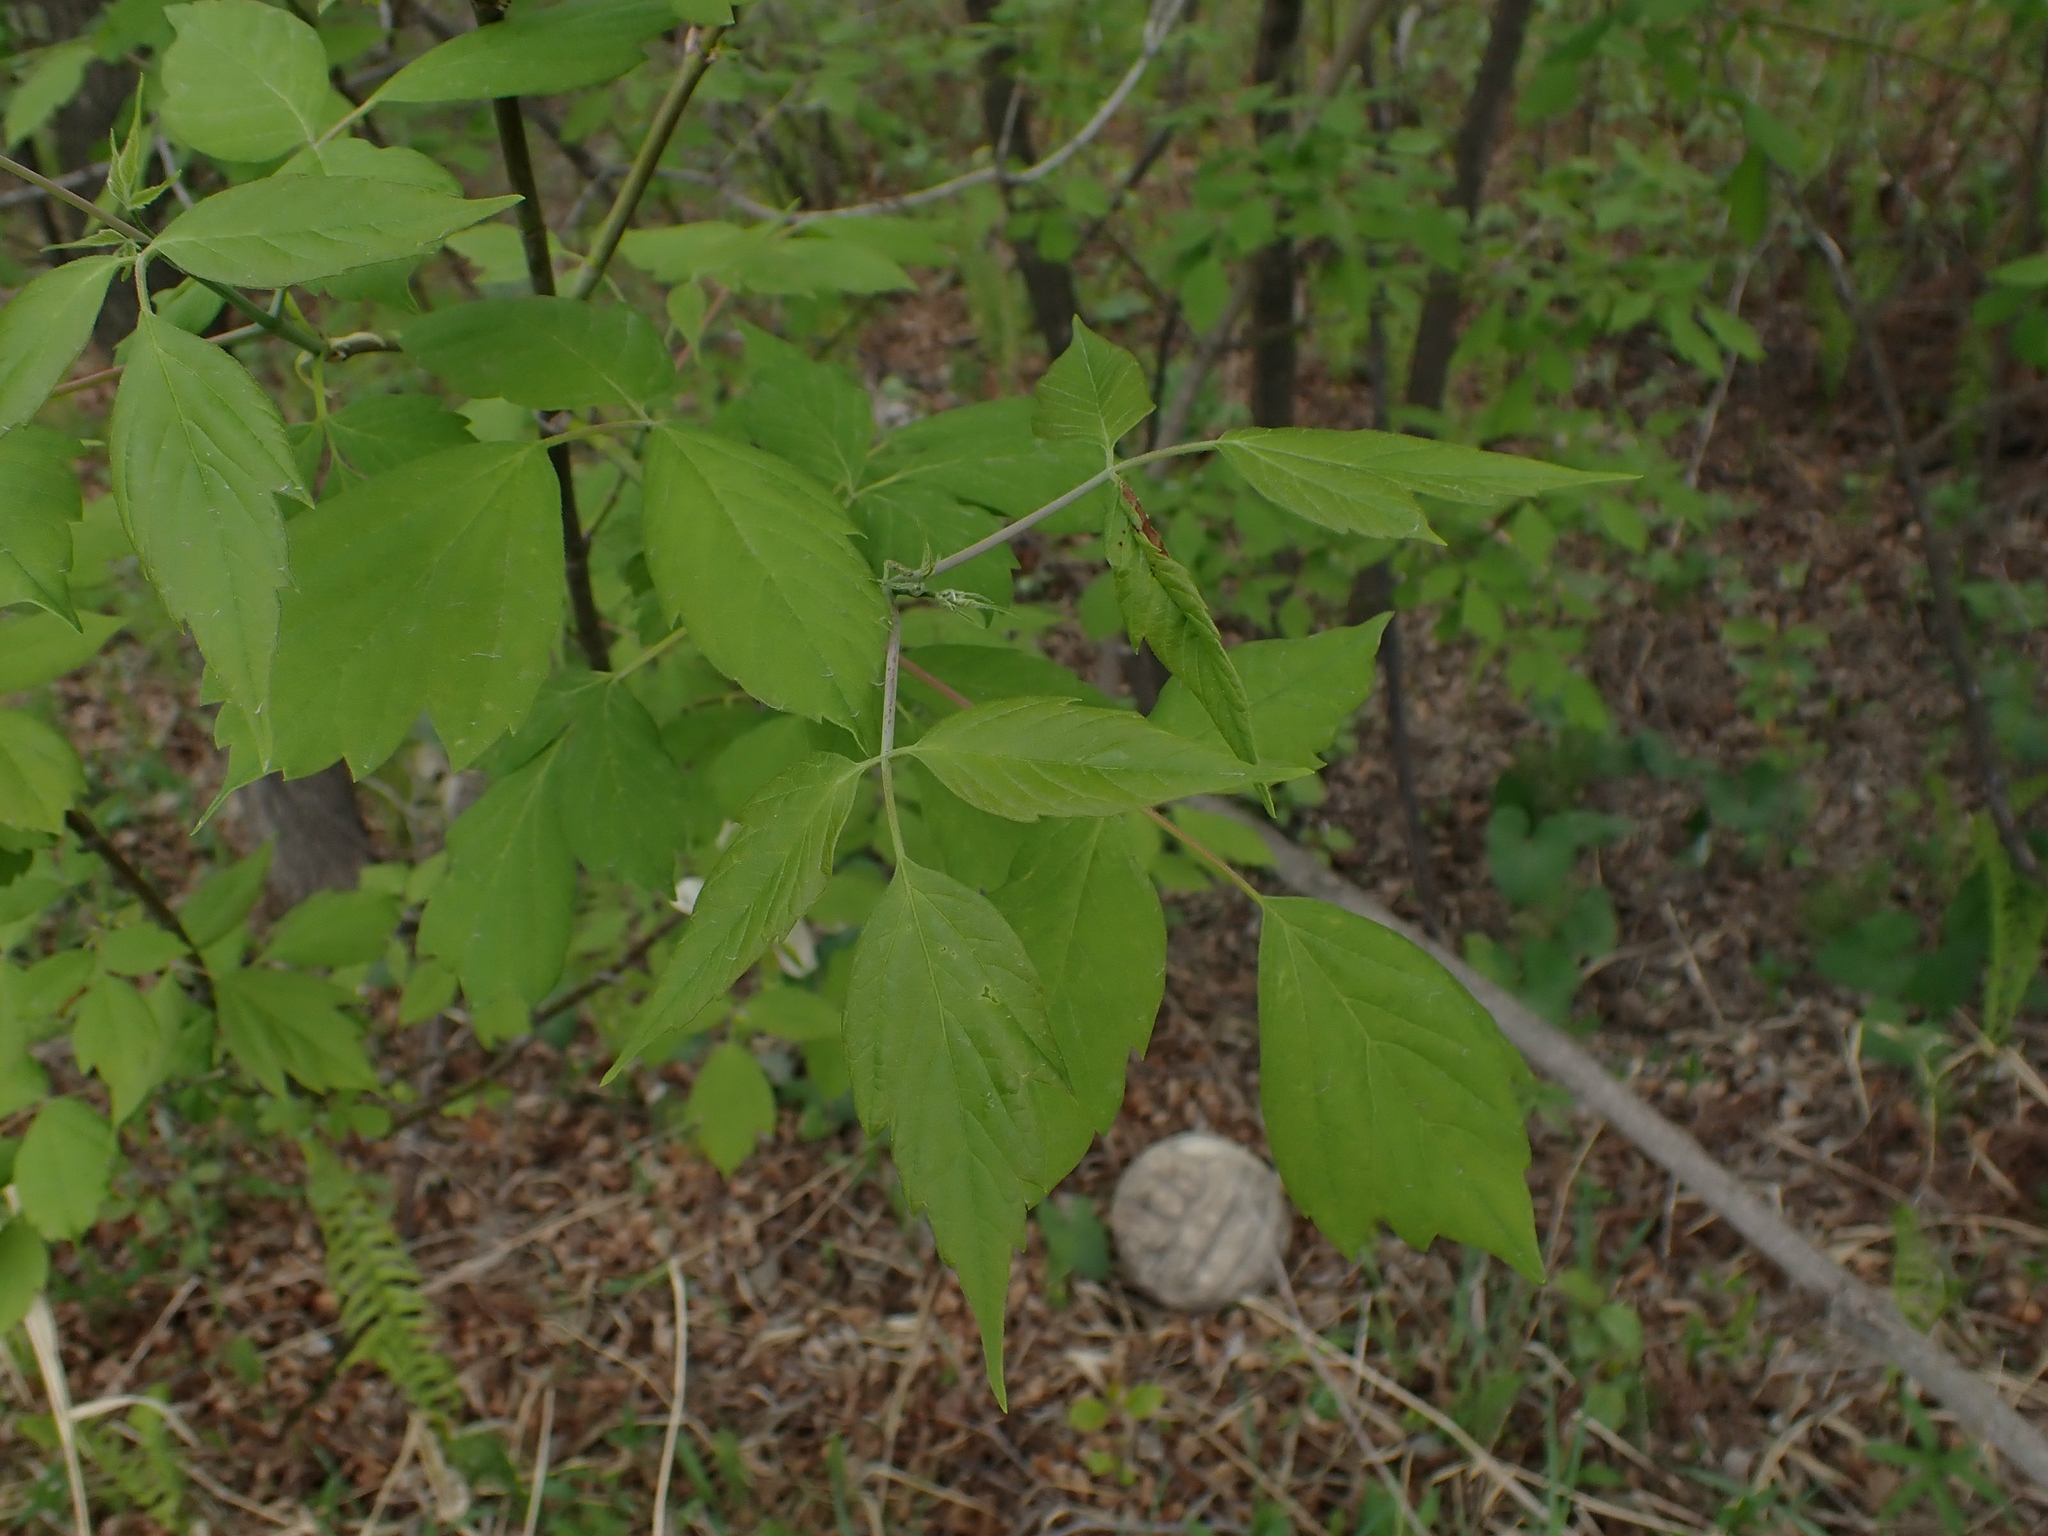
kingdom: Plantae
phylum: Tracheophyta
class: Magnoliopsida
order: Sapindales
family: Sapindaceae
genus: Acer
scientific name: Acer negundo
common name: Ashleaf maple
